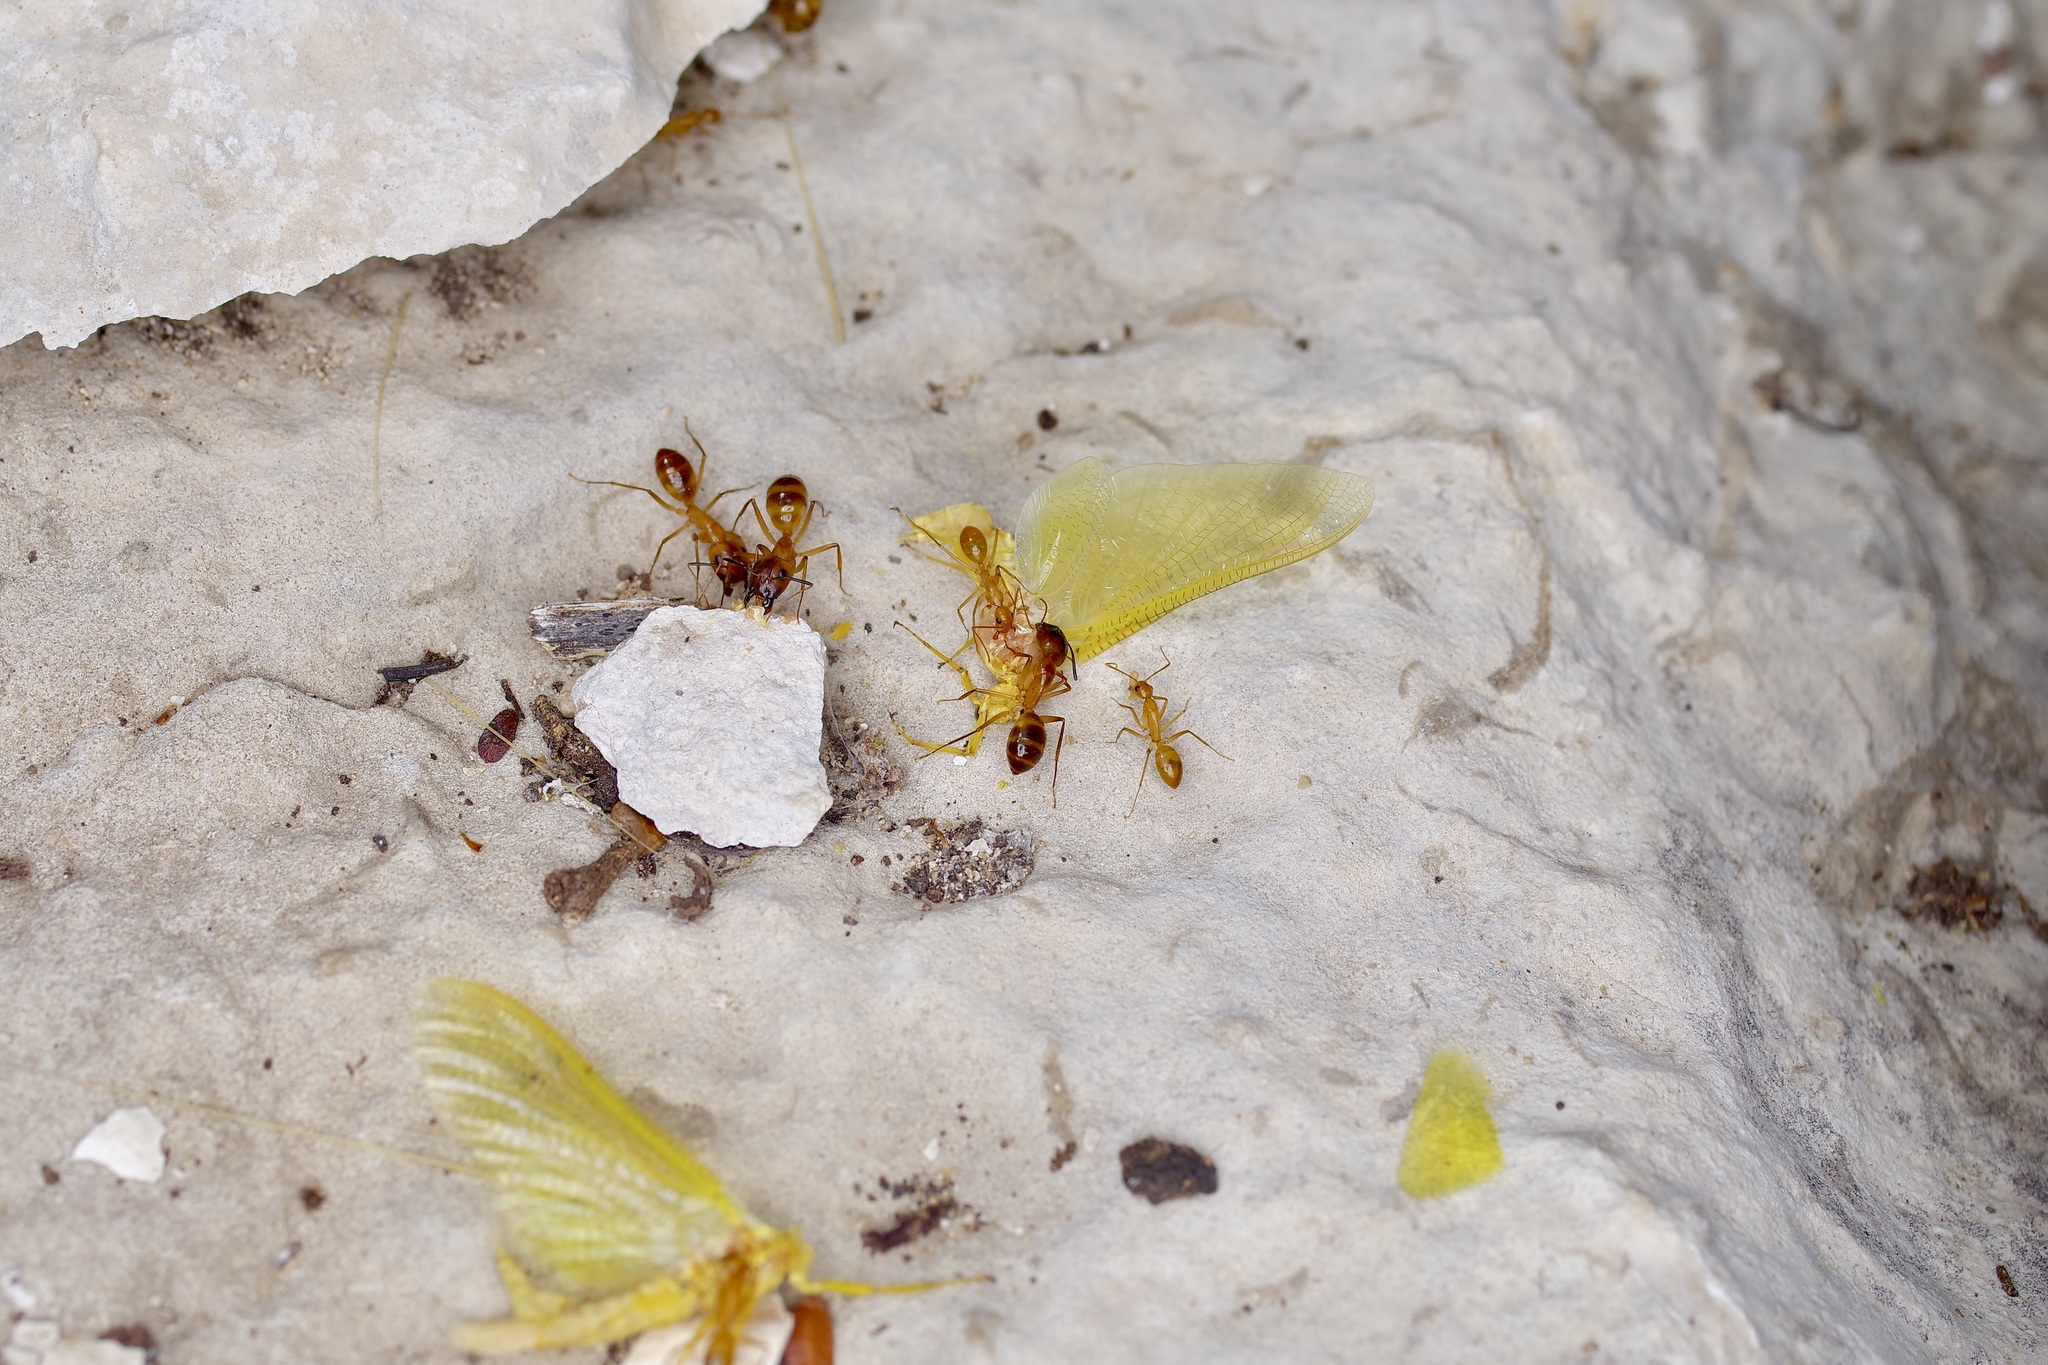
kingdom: Animalia
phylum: Arthropoda
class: Insecta
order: Hymenoptera
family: Formicidae
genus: Camponotus
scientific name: Camponotus festinatus
